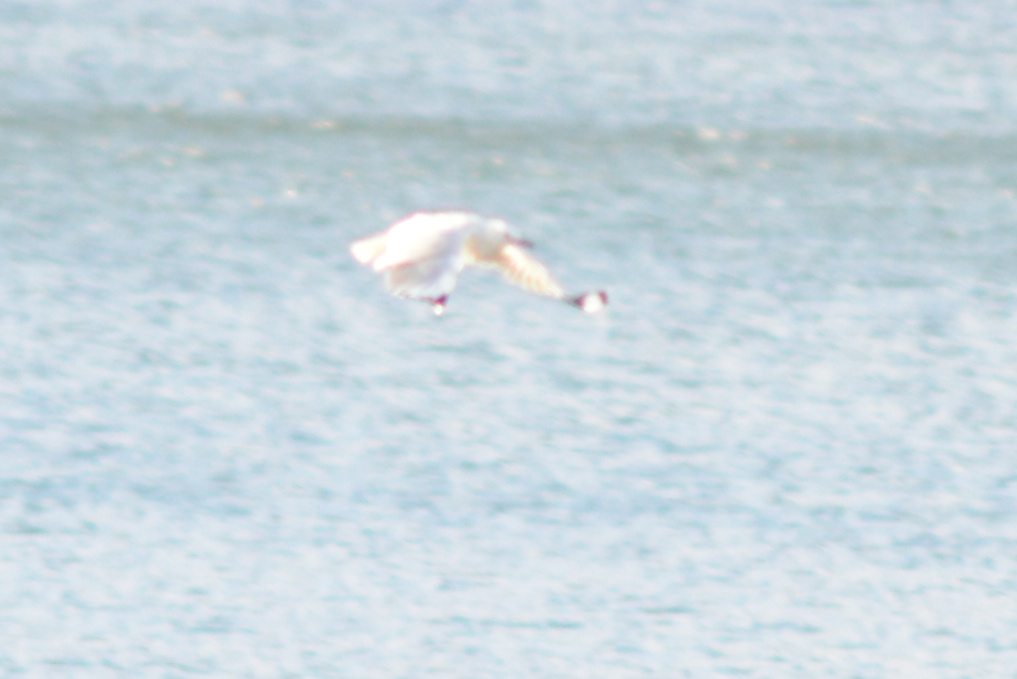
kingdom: Animalia
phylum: Chordata
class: Aves
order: Charadriiformes
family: Laridae
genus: Chroicocephalus
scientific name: Chroicocephalus novaehollandiae
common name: Silver gull
